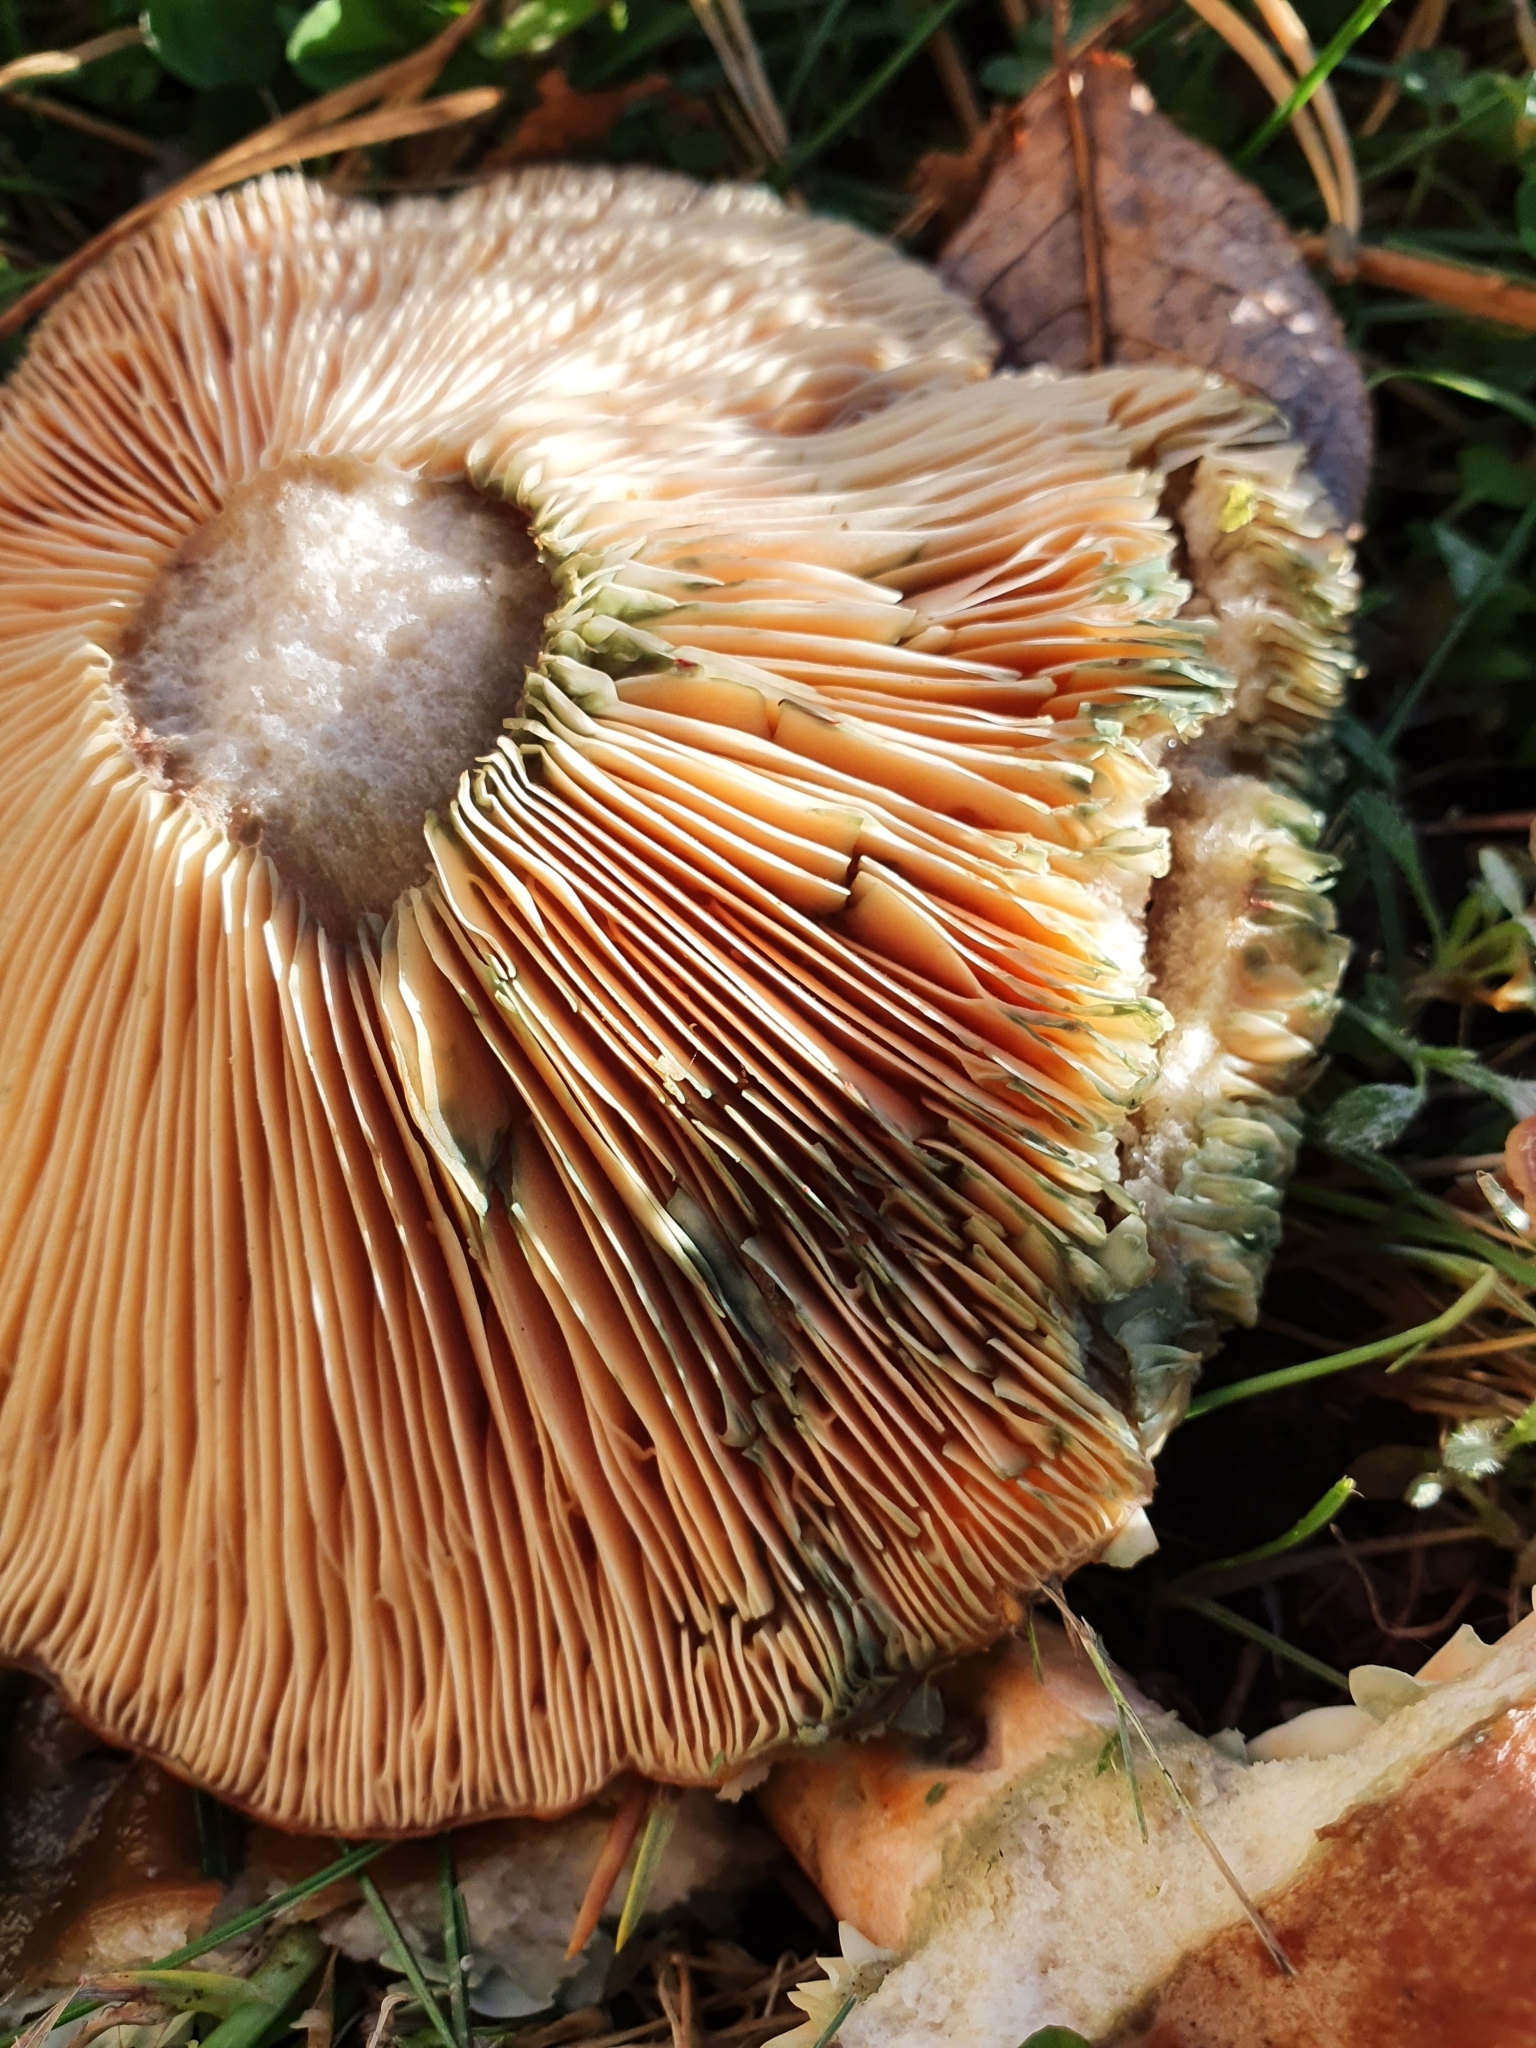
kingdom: Fungi
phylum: Basidiomycota
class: Agaricomycetes
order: Russulales
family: Russulaceae
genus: Lactarius
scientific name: Lactarius deliciosus
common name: Saffron milk-cap
